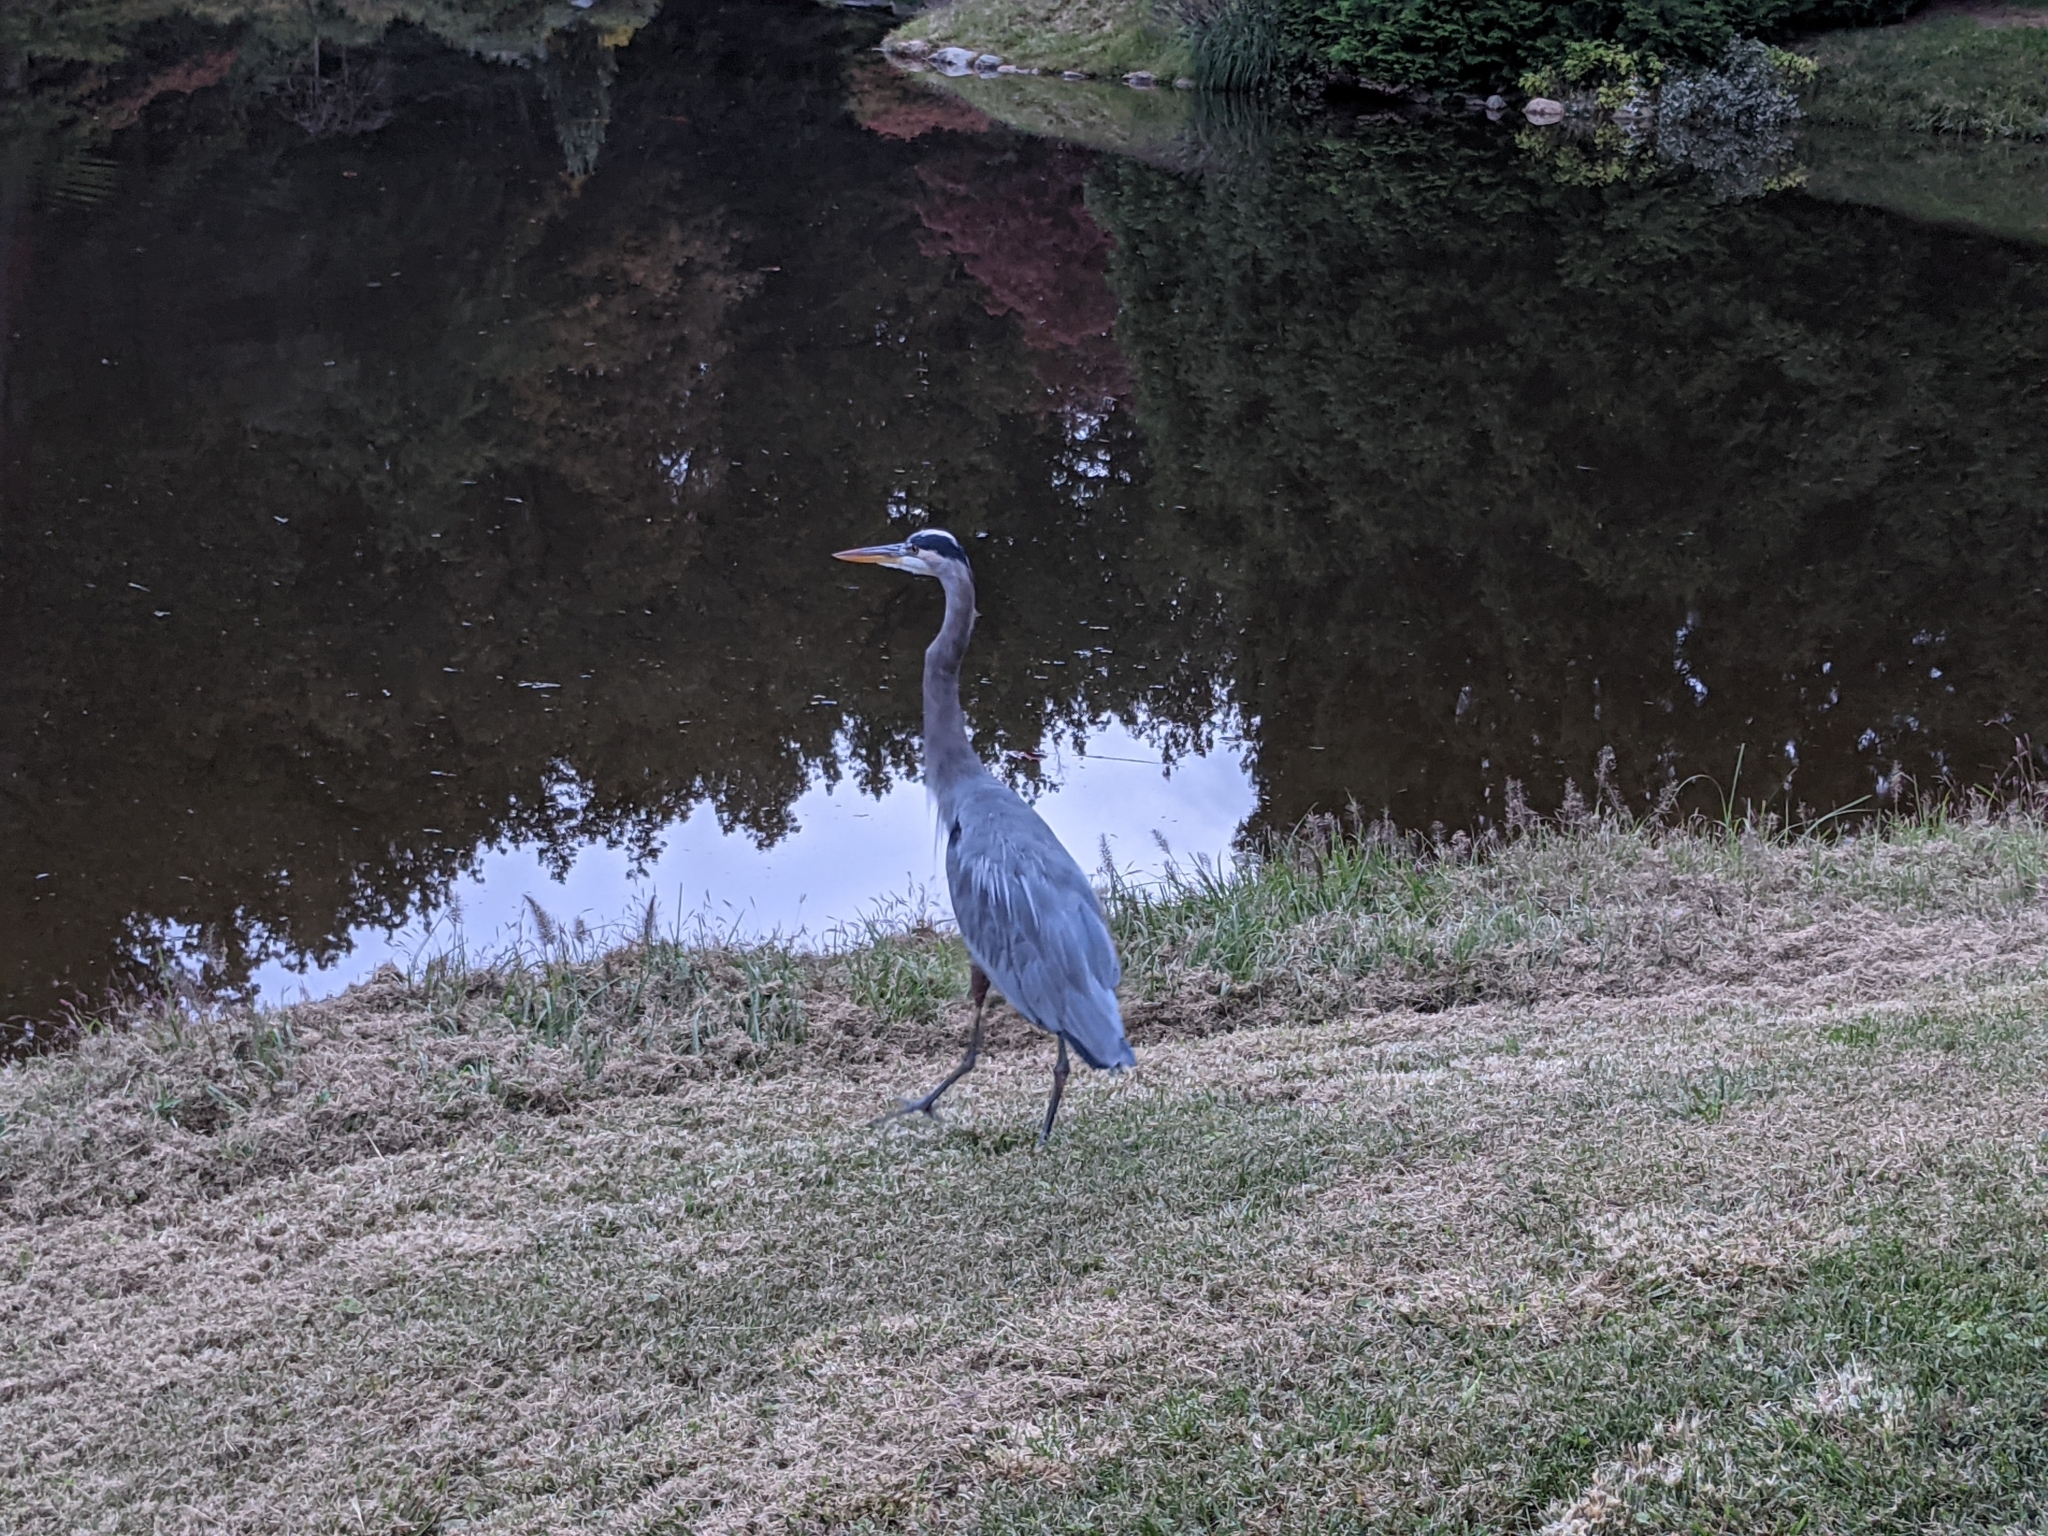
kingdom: Animalia
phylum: Chordata
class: Aves
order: Pelecaniformes
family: Ardeidae
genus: Ardea
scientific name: Ardea herodias
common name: Great blue heron
